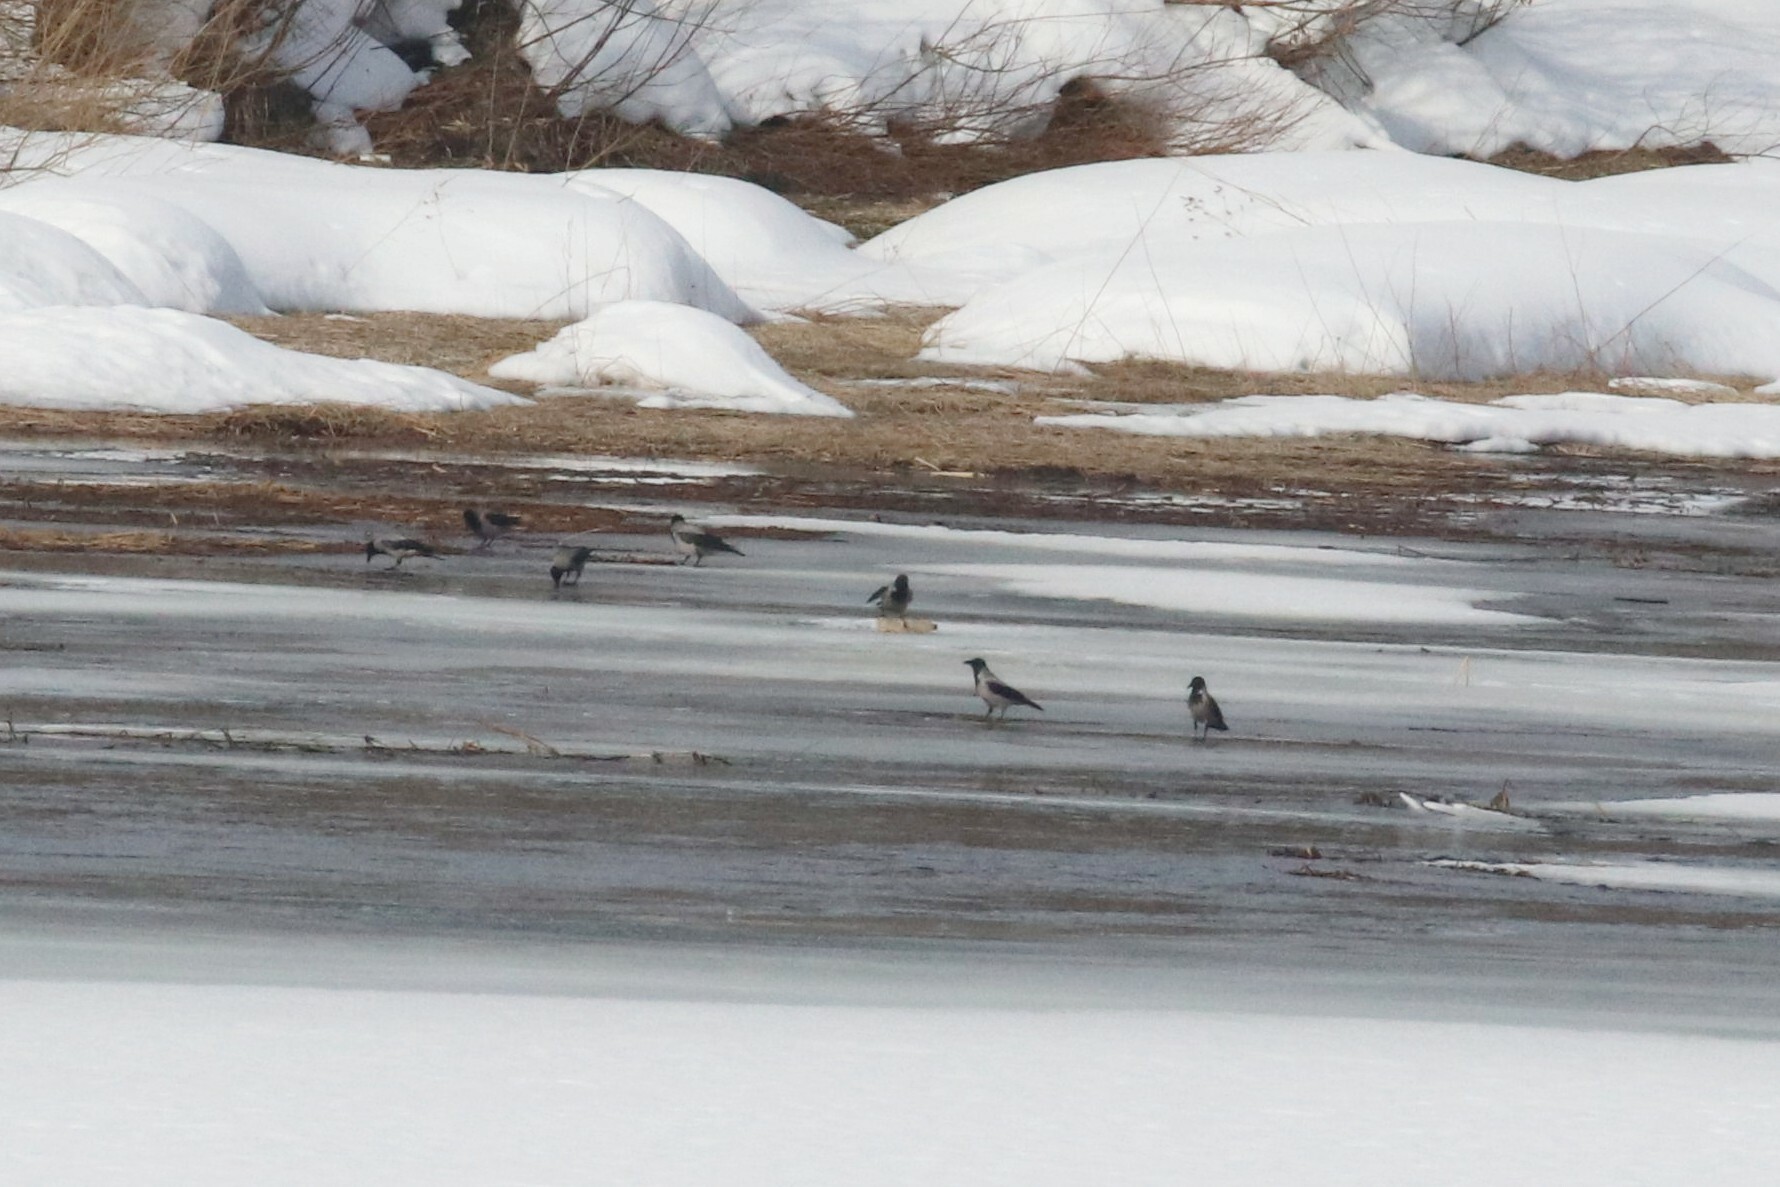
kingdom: Animalia
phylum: Chordata
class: Aves
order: Passeriformes
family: Corvidae
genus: Corvus
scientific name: Corvus cornix
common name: Hooded crow
